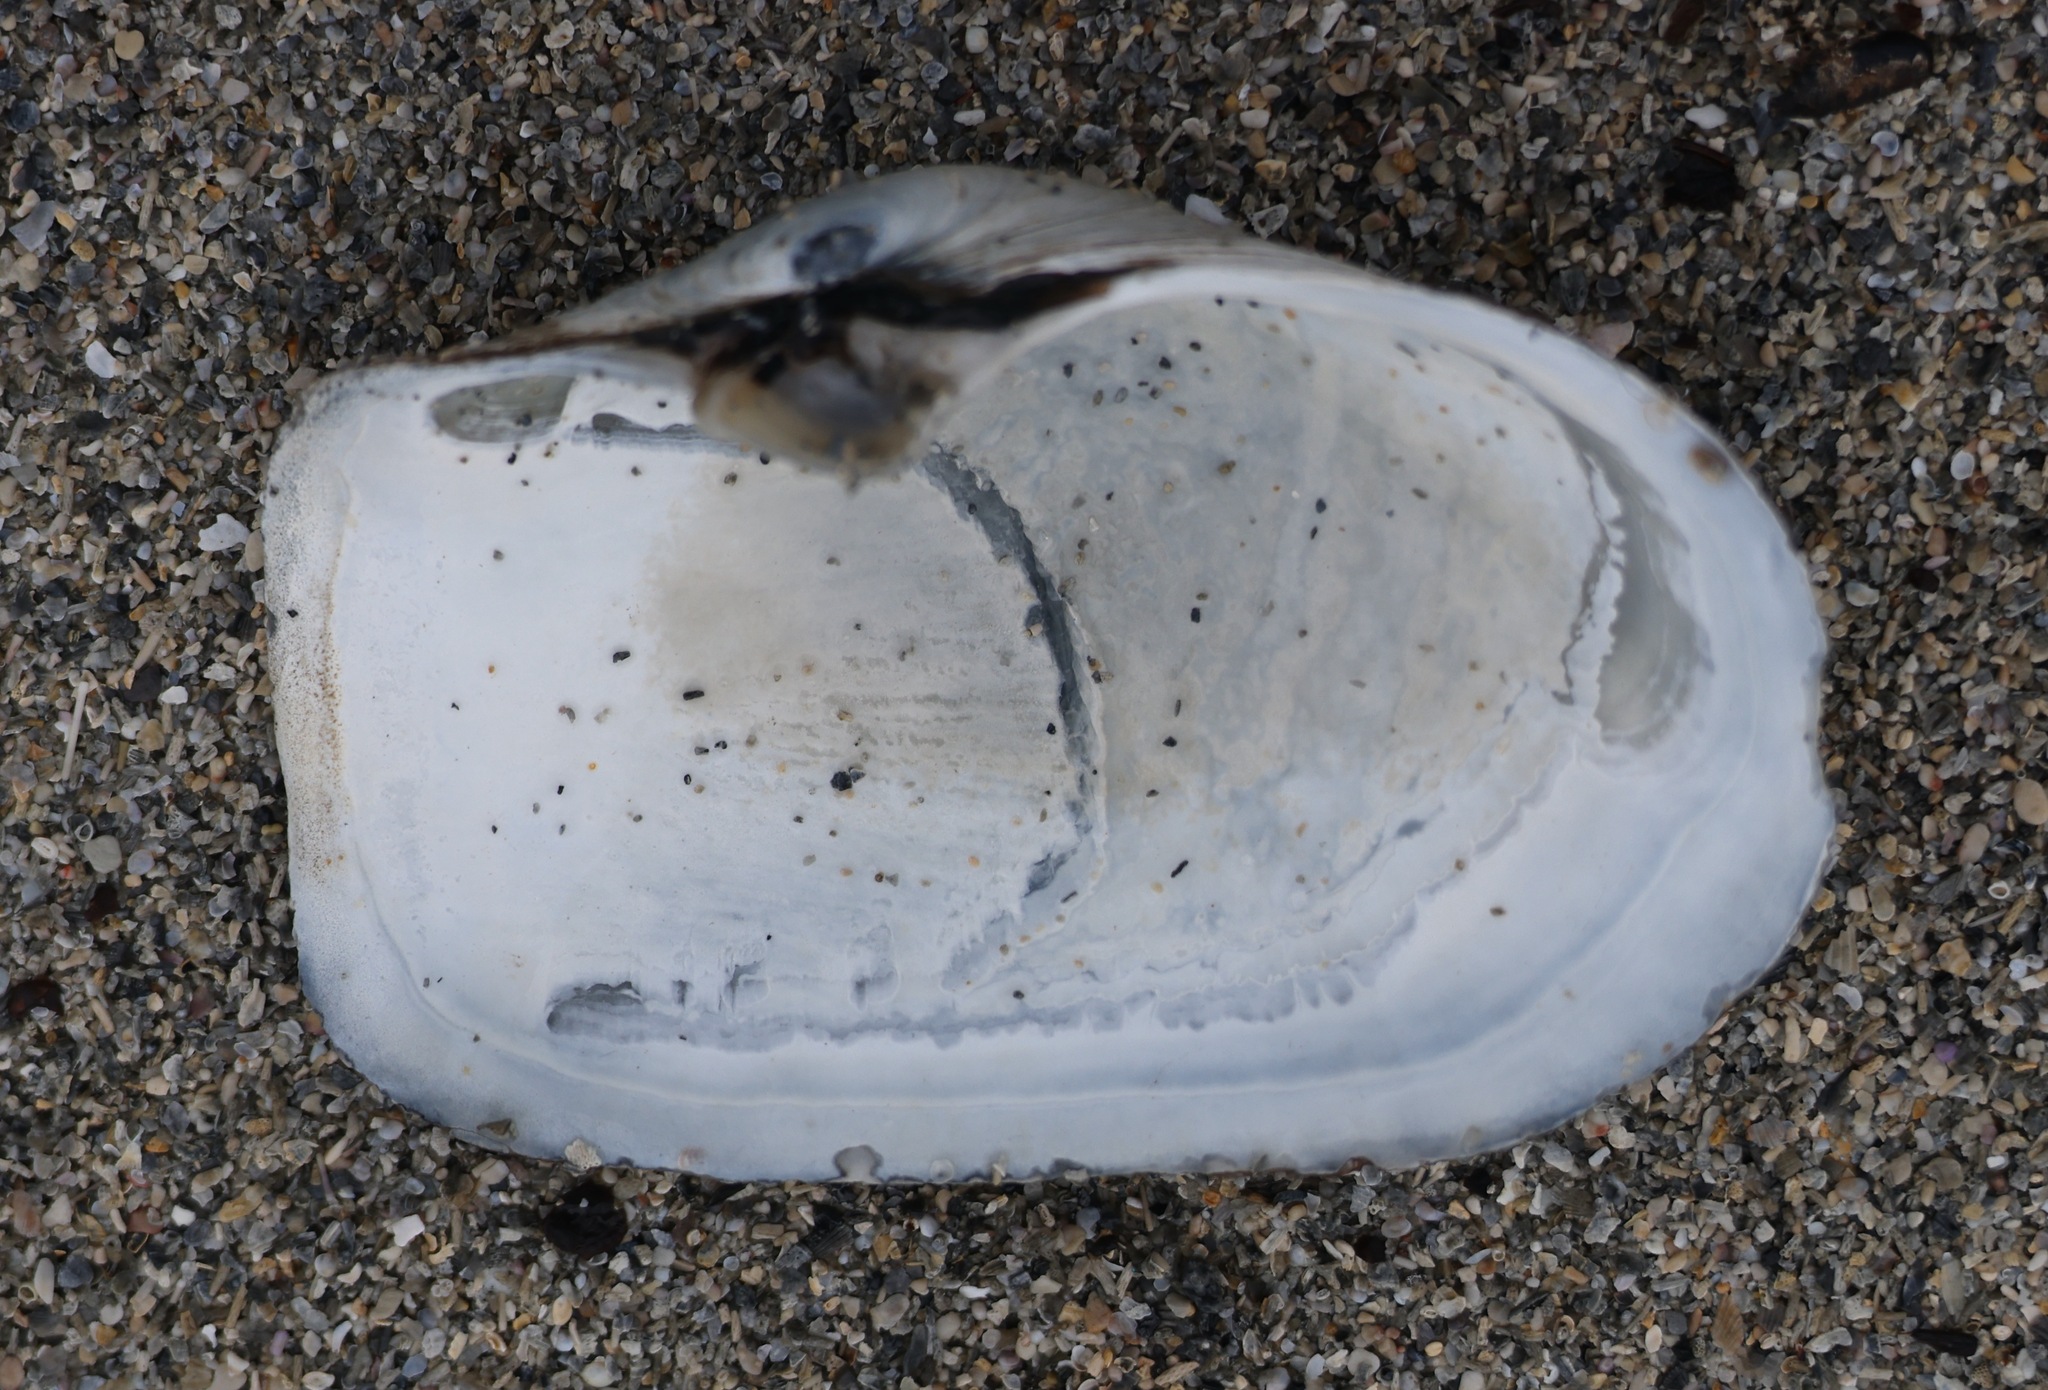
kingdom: Animalia
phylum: Mollusca
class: Bivalvia
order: Myida
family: Myidae
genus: Mya
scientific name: Mya truncata
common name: Blunt gaper
